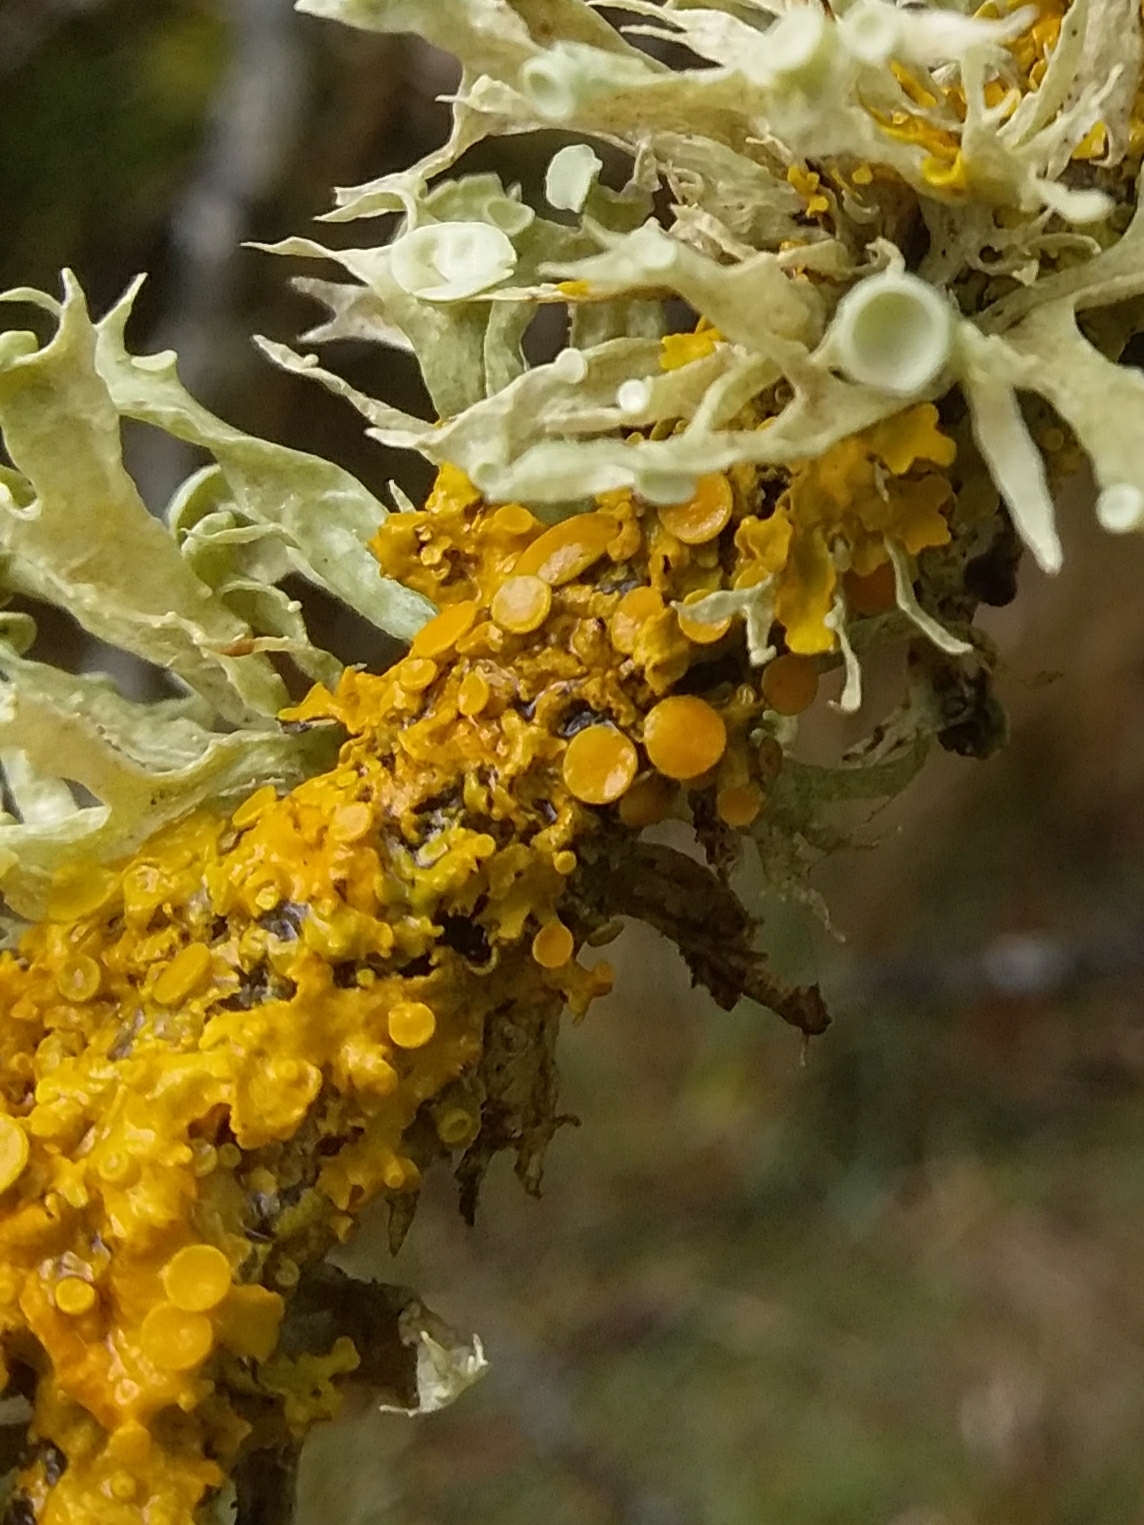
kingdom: Fungi
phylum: Ascomycota
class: Lecanoromycetes
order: Teloschistales
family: Teloschistaceae
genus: Xanthoria
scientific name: Xanthoria parietina
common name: Common orange lichen
